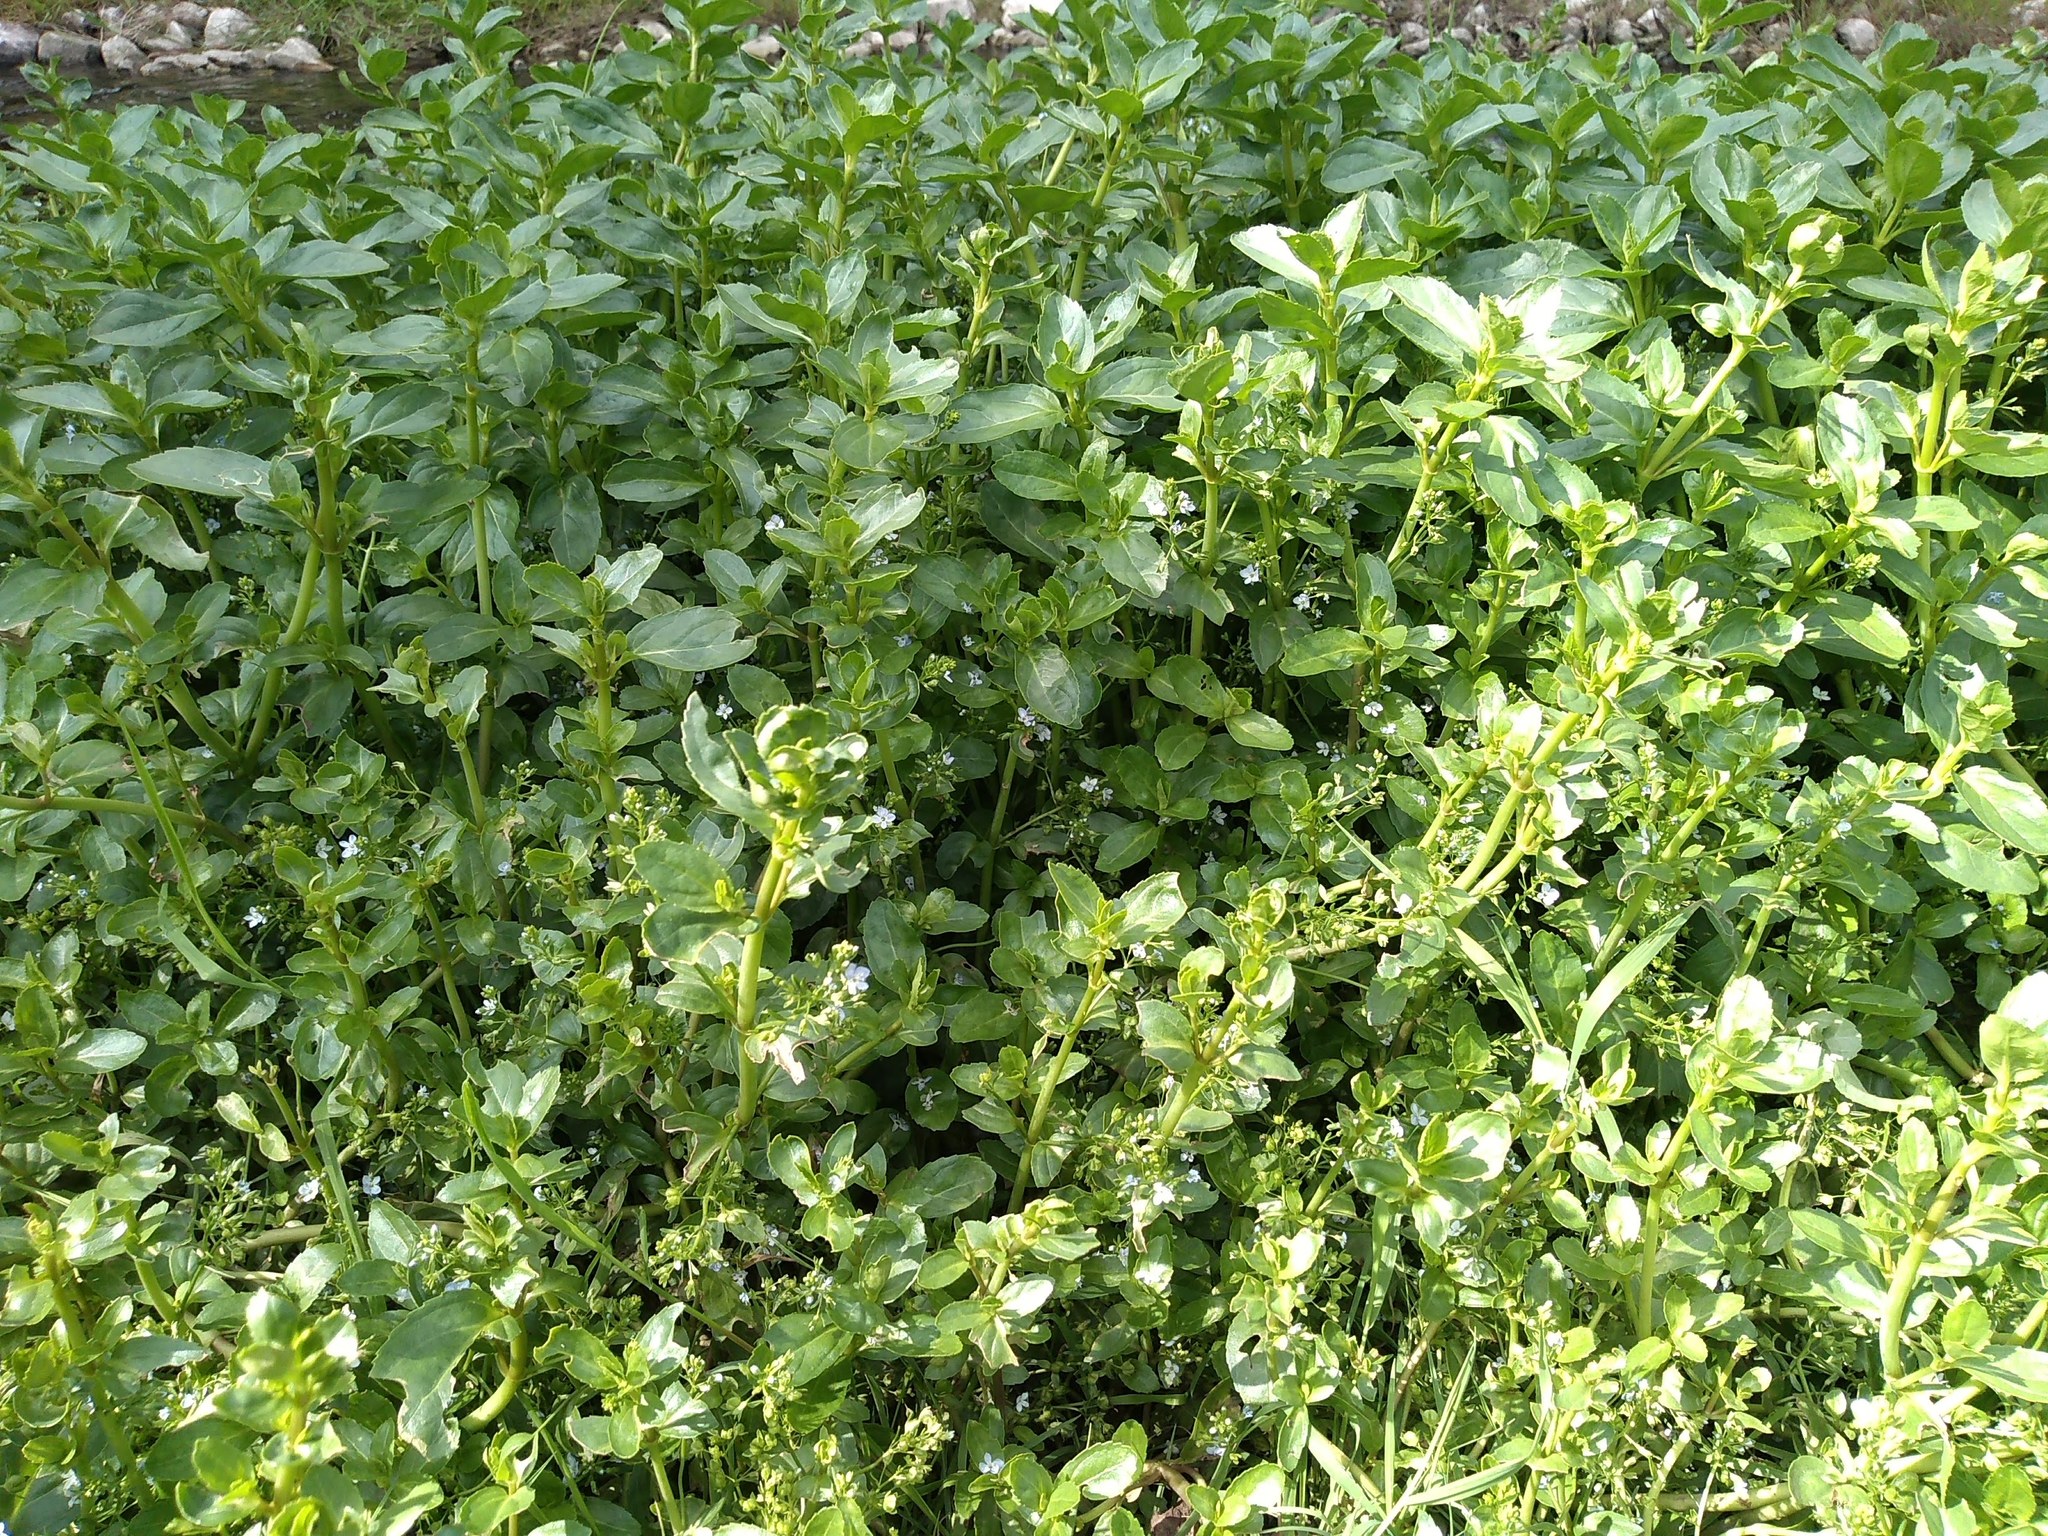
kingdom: Plantae
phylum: Tracheophyta
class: Magnoliopsida
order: Lamiales
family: Plantaginaceae
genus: Veronica
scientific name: Veronica beccabunga
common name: Brooklime
